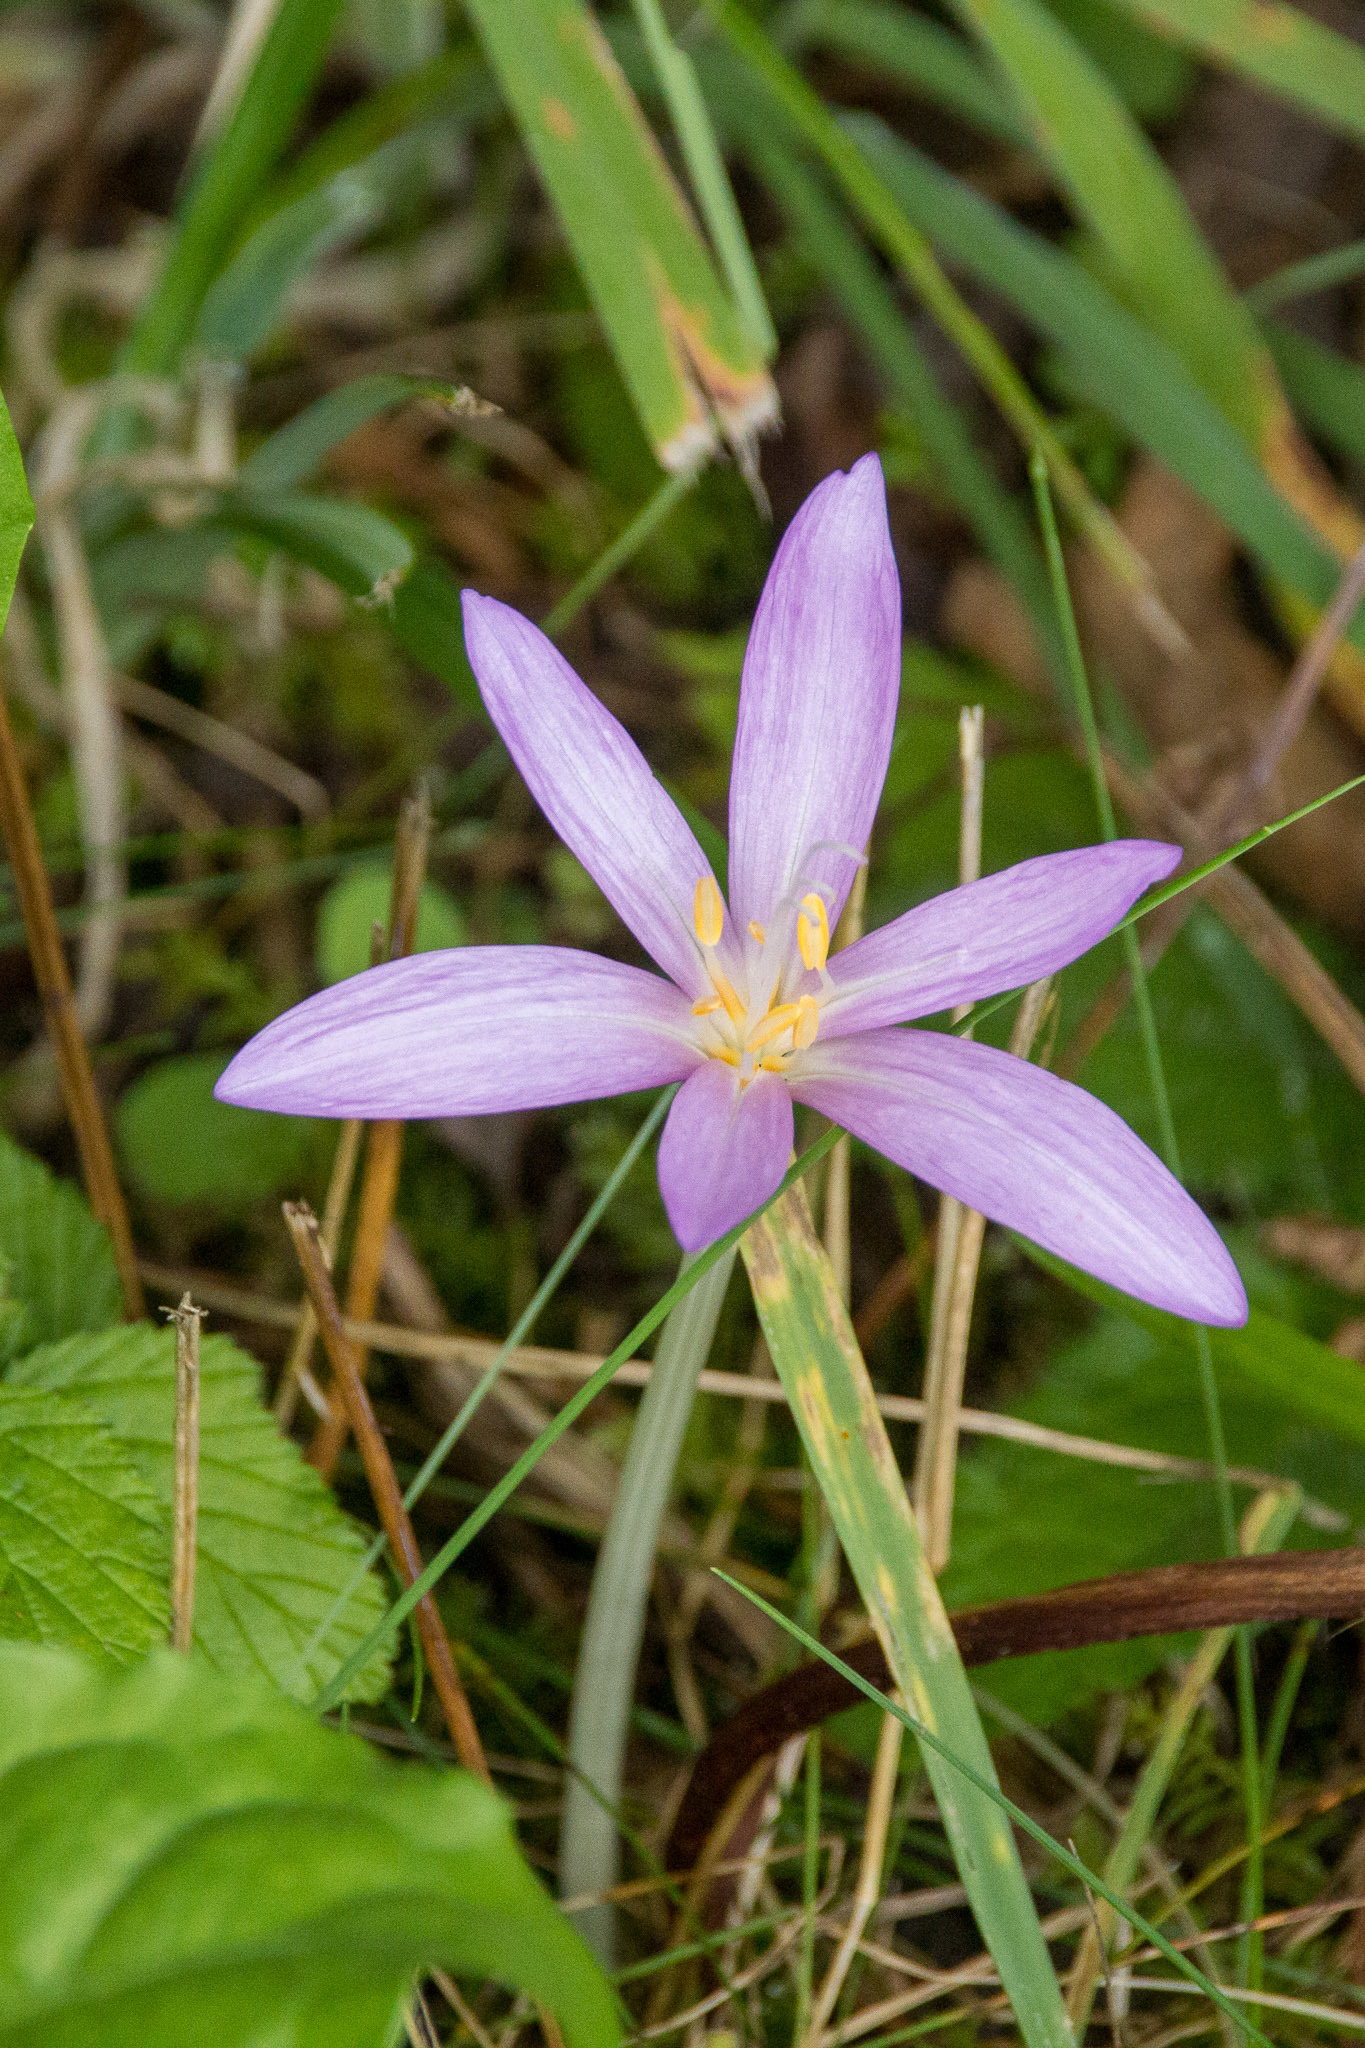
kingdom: Plantae
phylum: Tracheophyta
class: Liliopsida
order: Liliales
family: Colchicaceae
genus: Colchicum
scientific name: Colchicum autumnale
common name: Autumn crocus
